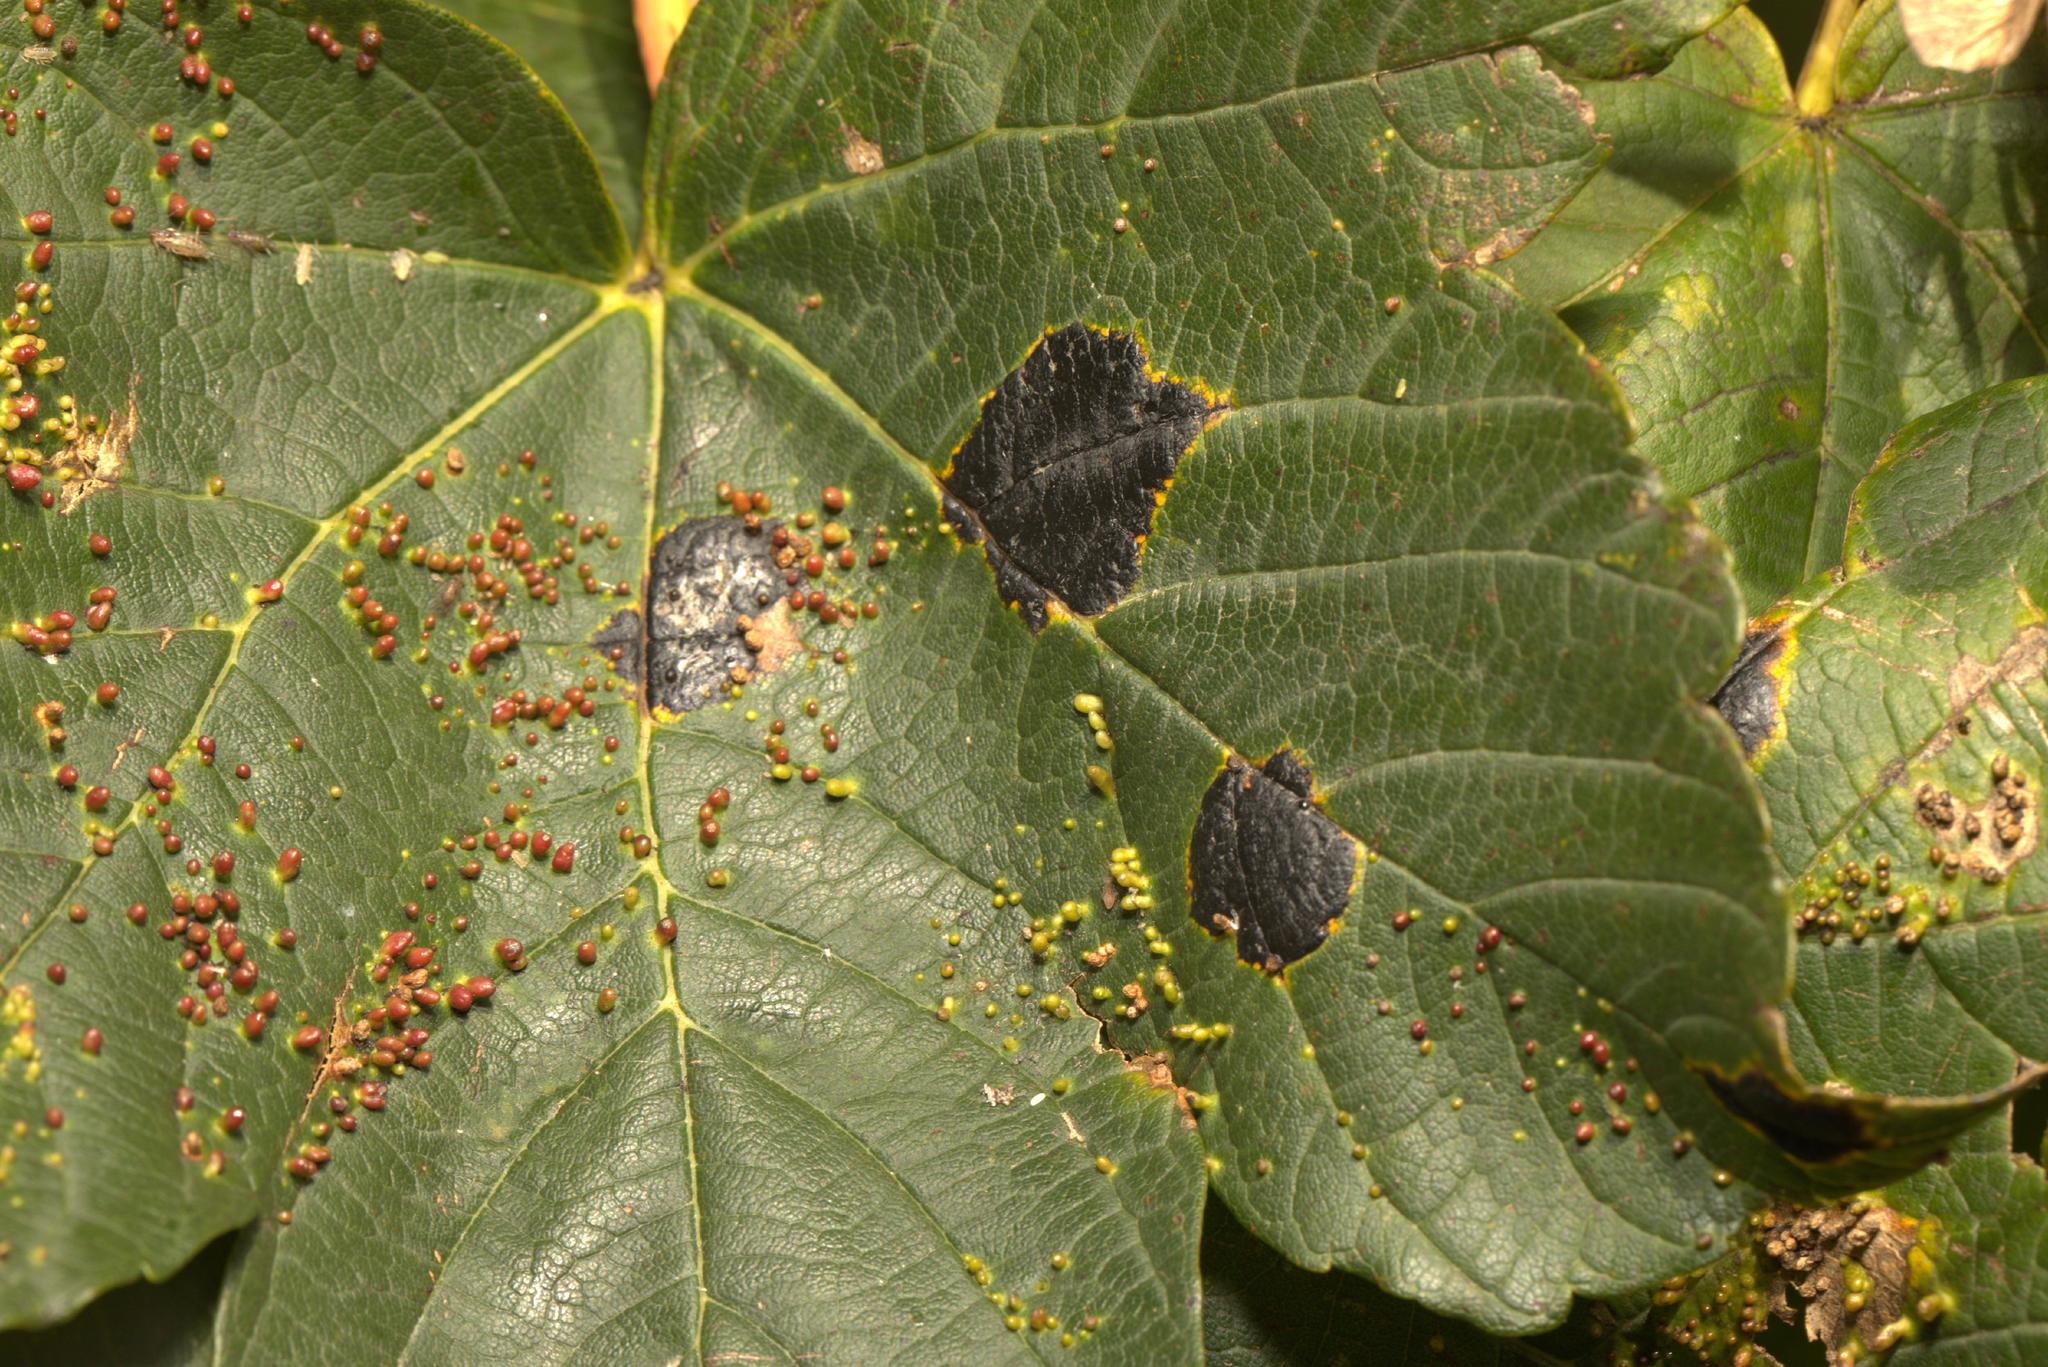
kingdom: Fungi
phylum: Ascomycota
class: Leotiomycetes
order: Rhytismatales
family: Rhytismataceae
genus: Rhytisma
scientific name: Rhytisma acerinum
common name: European tar spot
